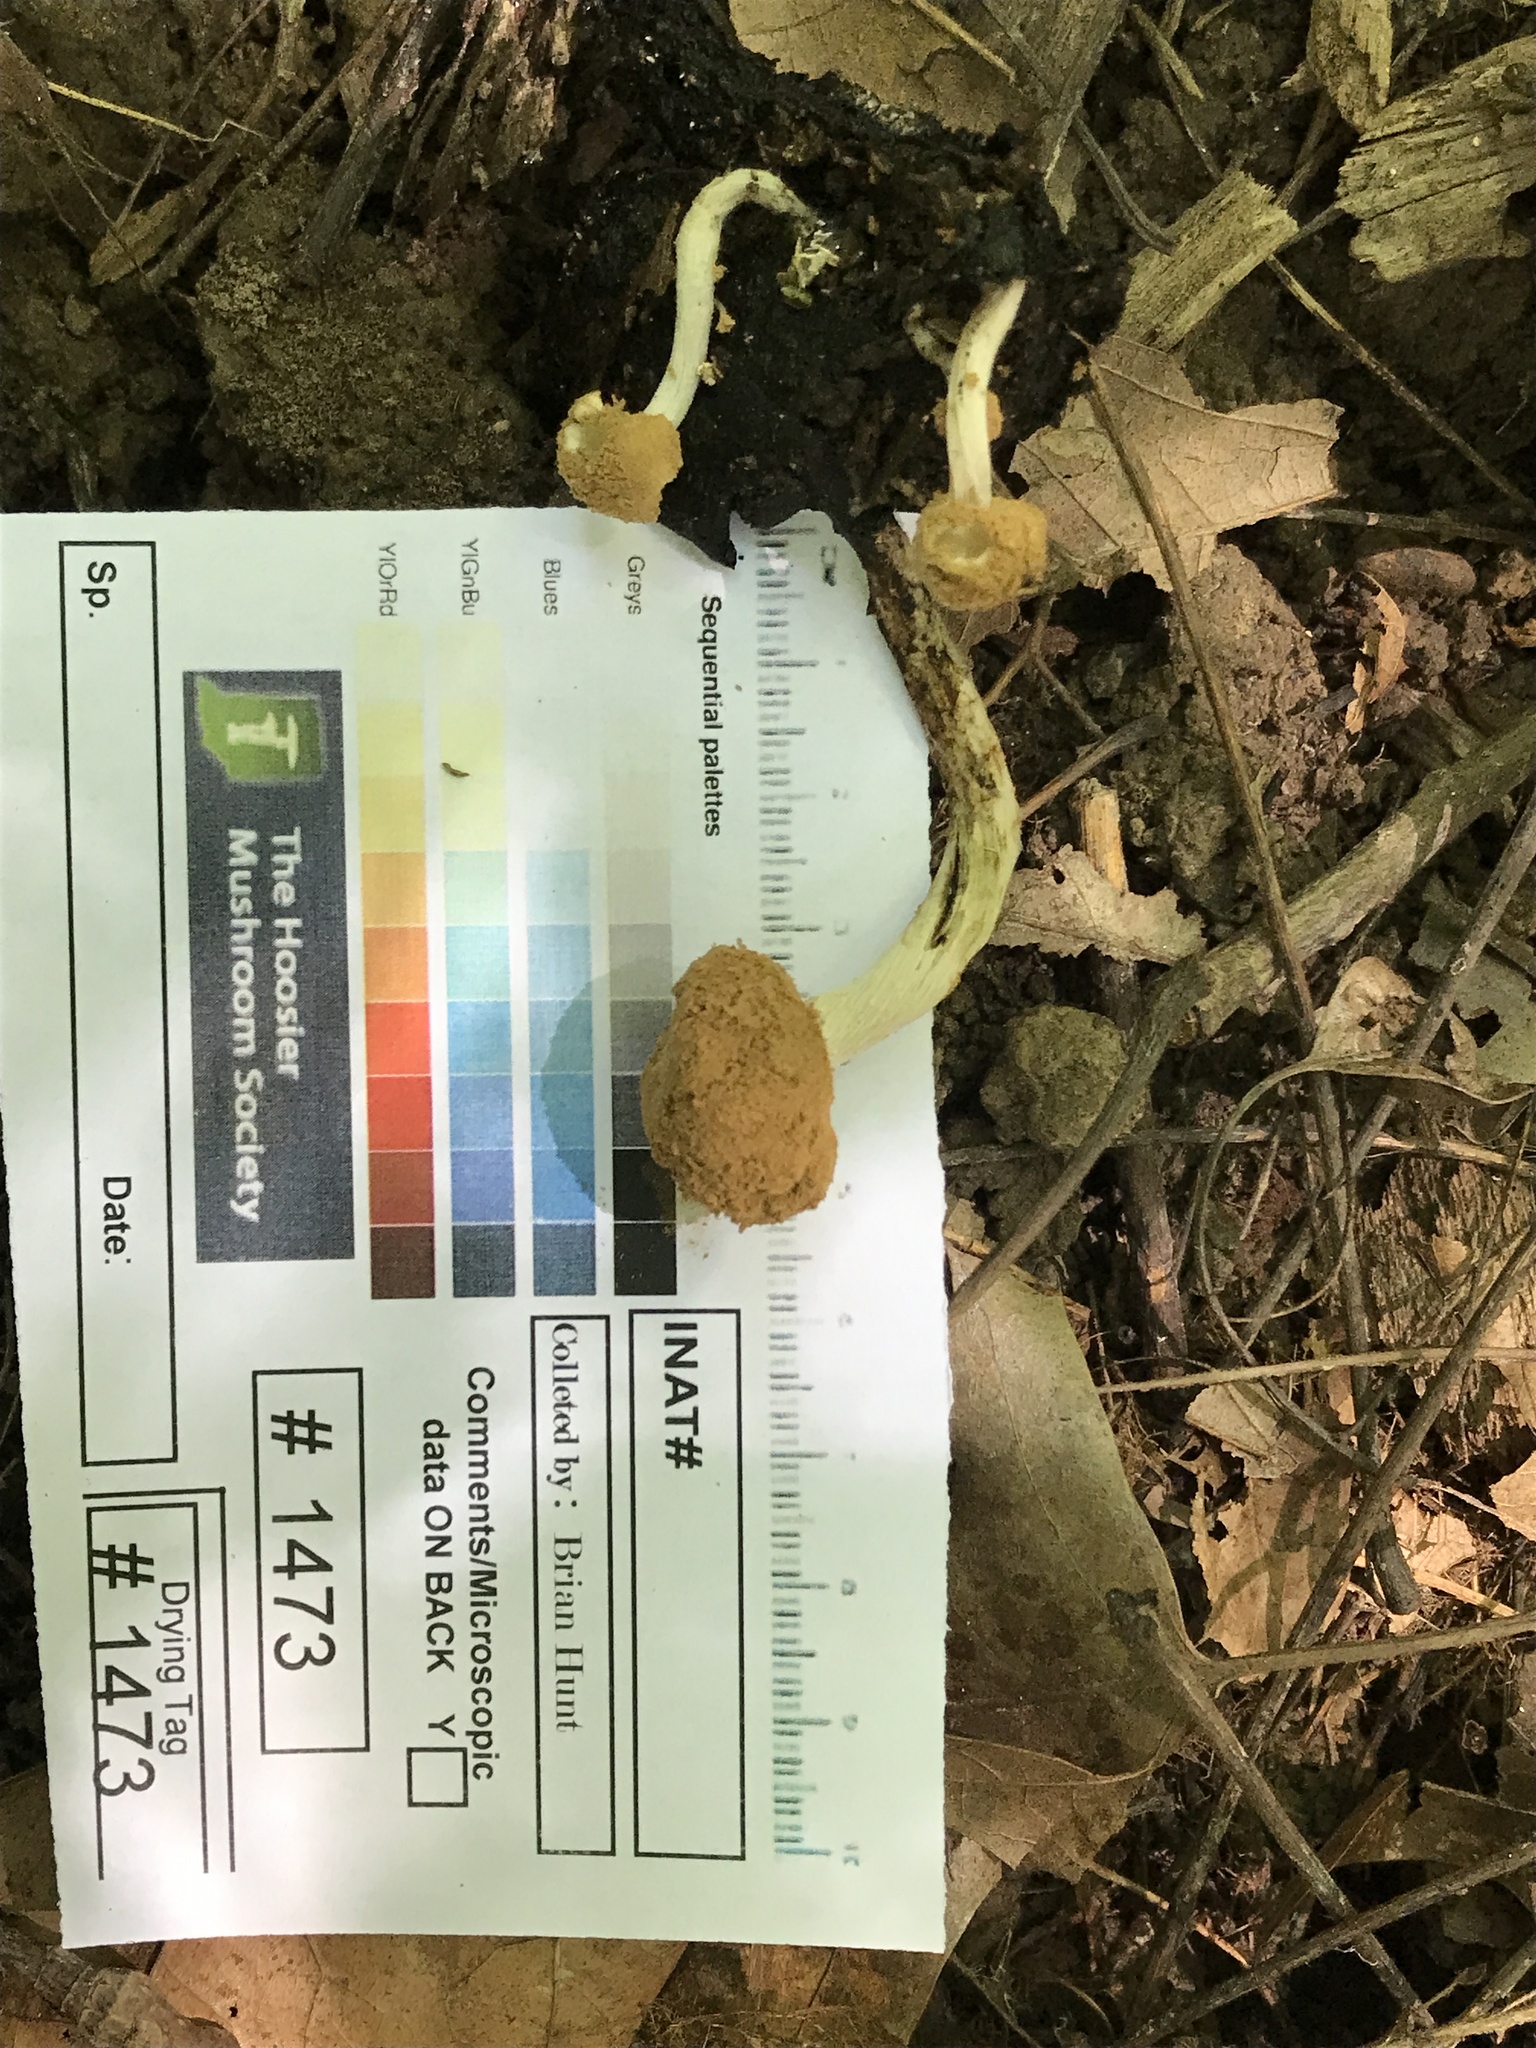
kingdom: Fungi
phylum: Basidiomycota
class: Agaricomycetes
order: Agaricales
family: Lyophyllaceae
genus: Asterophora
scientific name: Asterophora lycoperdoides
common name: Pick-a-back toadstool
